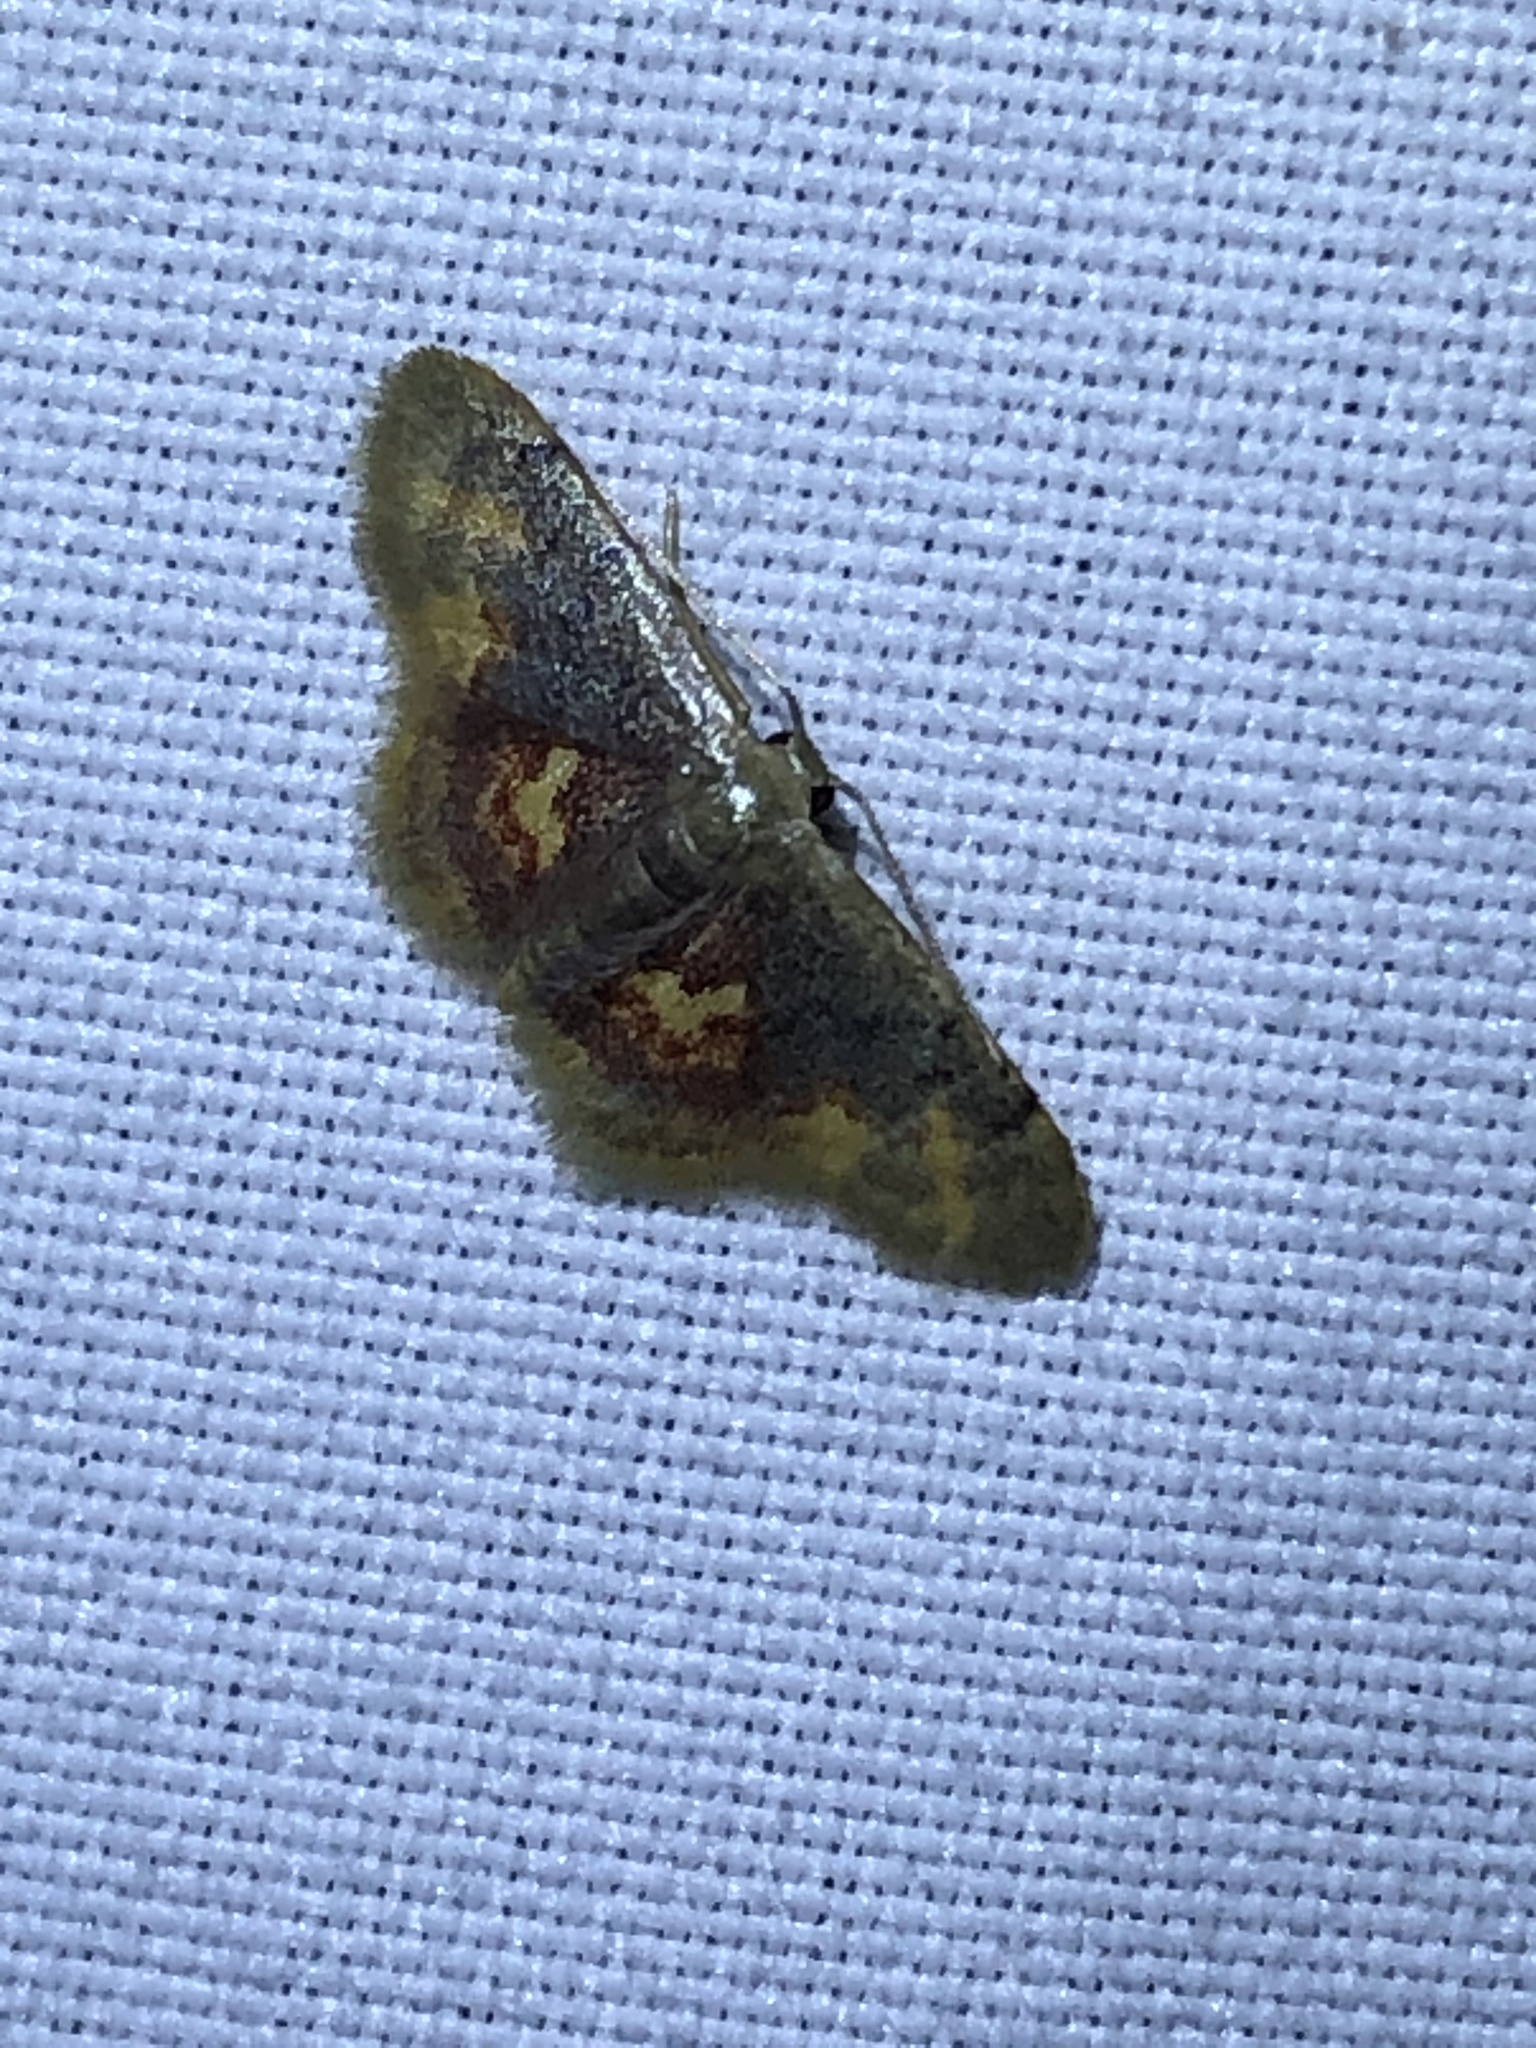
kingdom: Animalia
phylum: Arthropoda
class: Insecta
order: Lepidoptera
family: Geometridae
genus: Idaea
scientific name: Idaea scintillularia
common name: Diminutive wave
